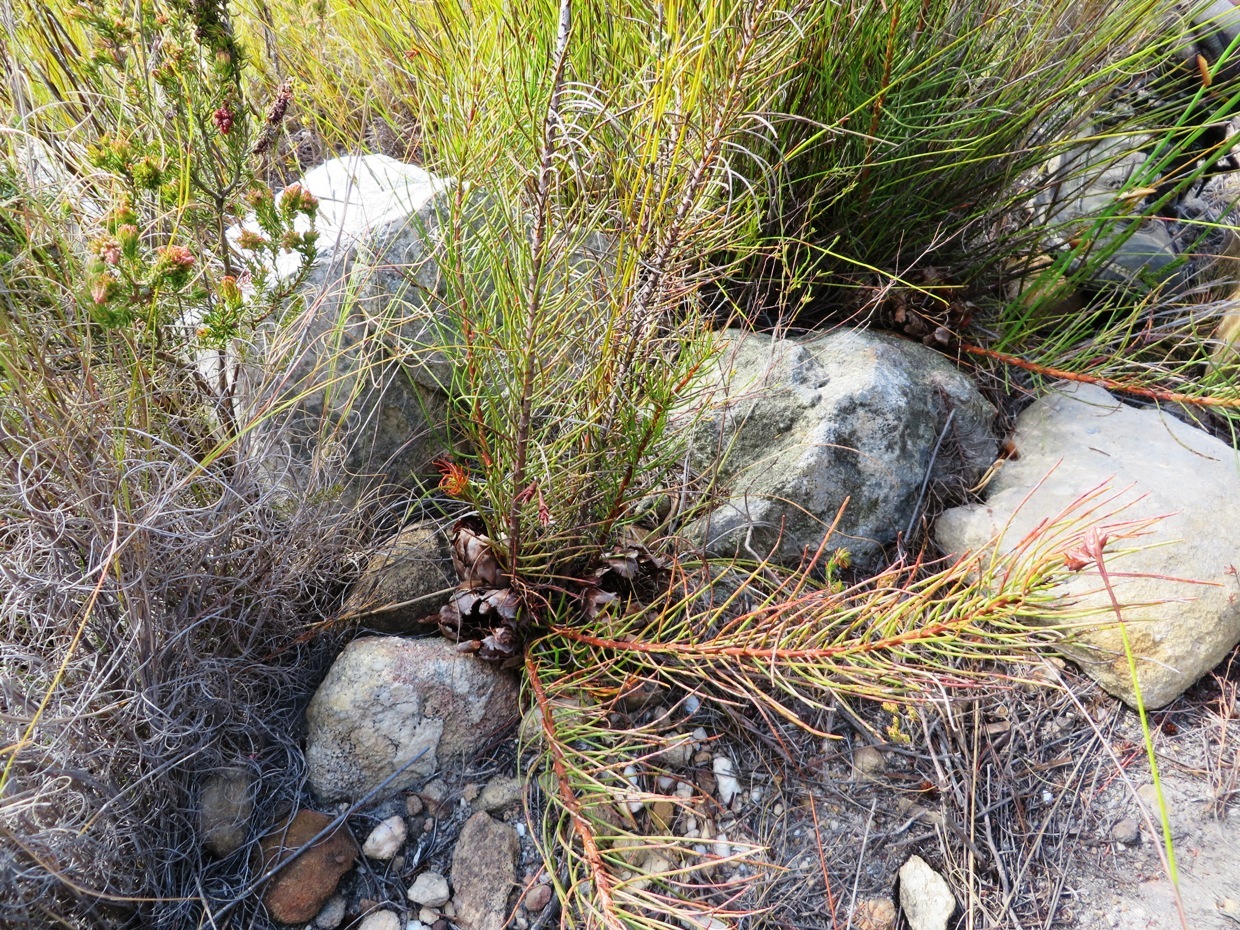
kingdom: Plantae
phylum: Tracheophyta
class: Magnoliopsida
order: Proteales
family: Proteaceae
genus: Protea
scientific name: Protea subulifolia
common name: Awl-leaf sugarbush
